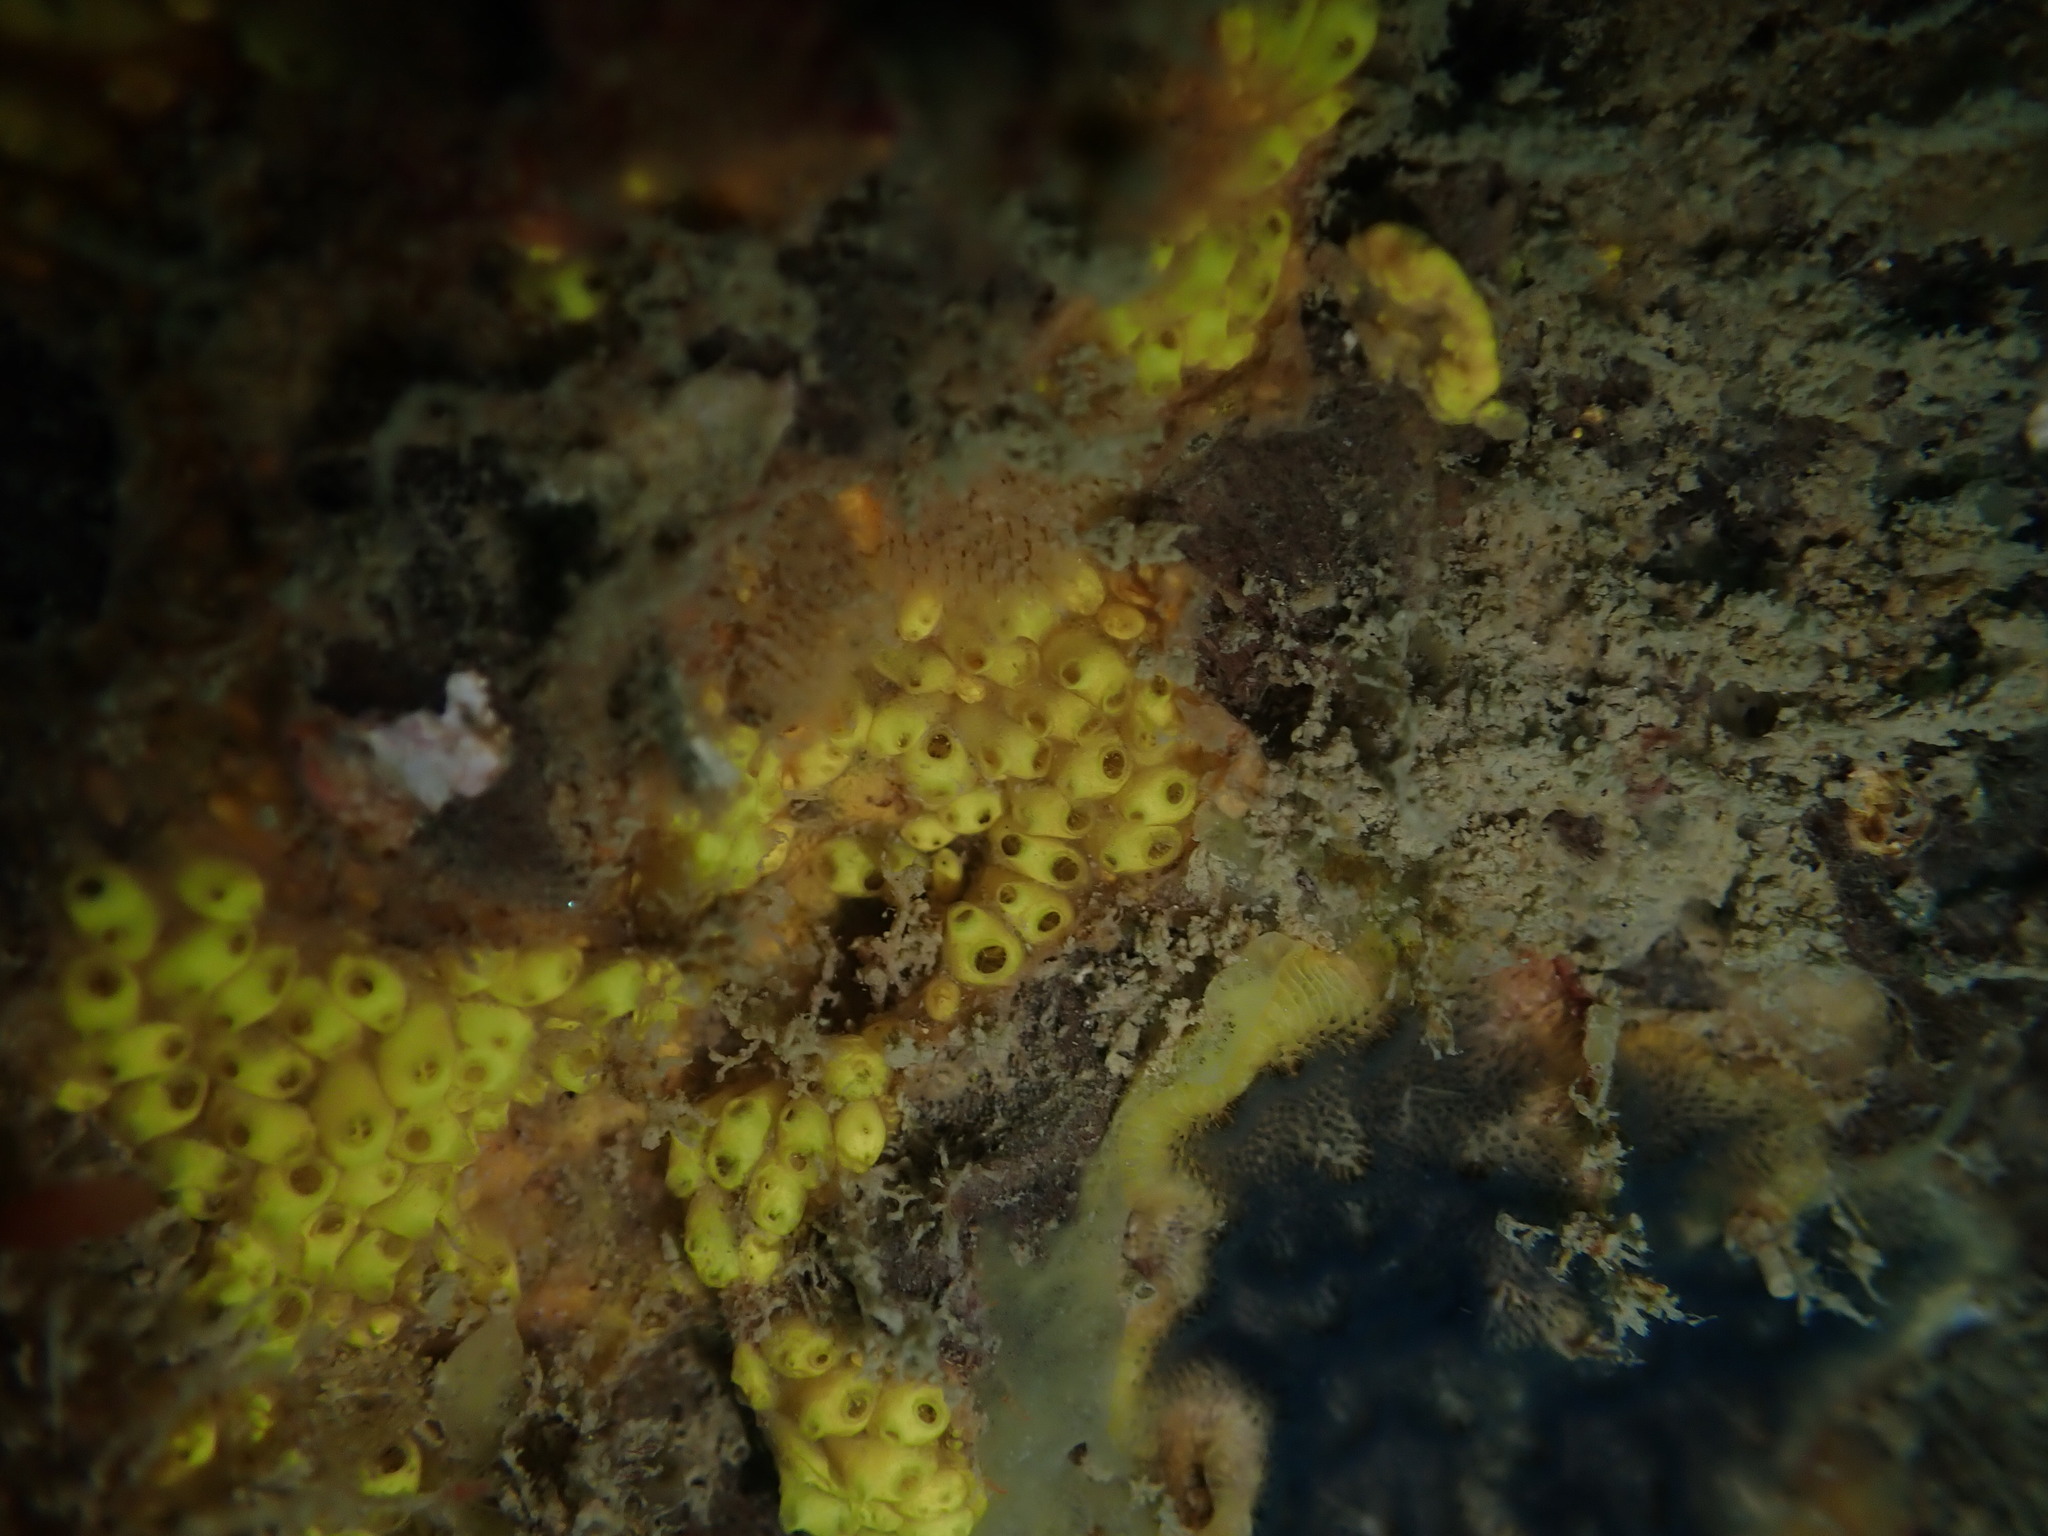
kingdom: Animalia
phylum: Chordata
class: Ascidiacea
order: Stolidobranchia
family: Styelidae
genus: Symplegma
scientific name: Symplegma brakenhielmi
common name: Ascidian
